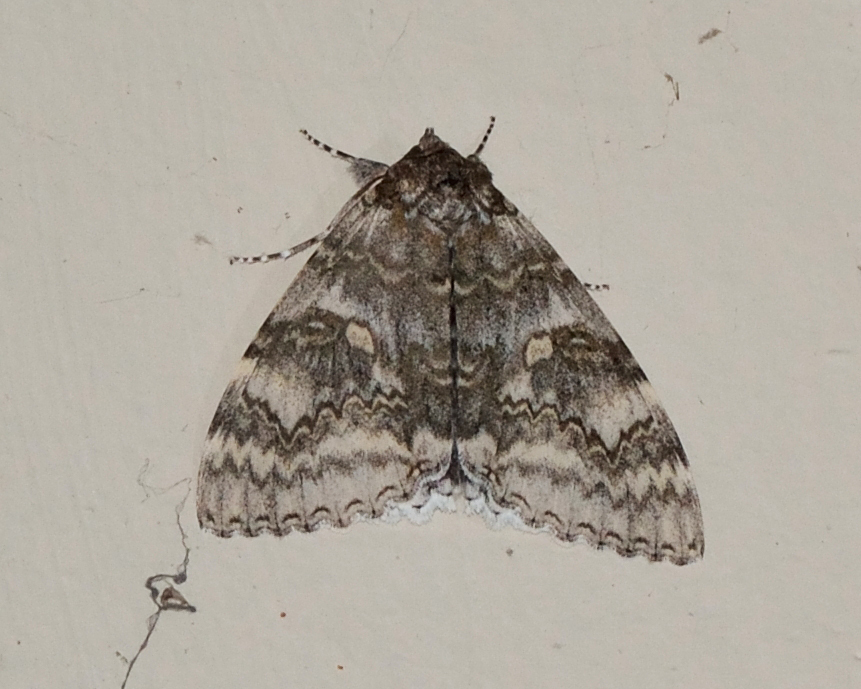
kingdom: Animalia
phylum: Arthropoda
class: Insecta
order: Lepidoptera
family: Erebidae
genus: Catocala
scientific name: Catocala fraxini
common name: Clifden nonpareil
